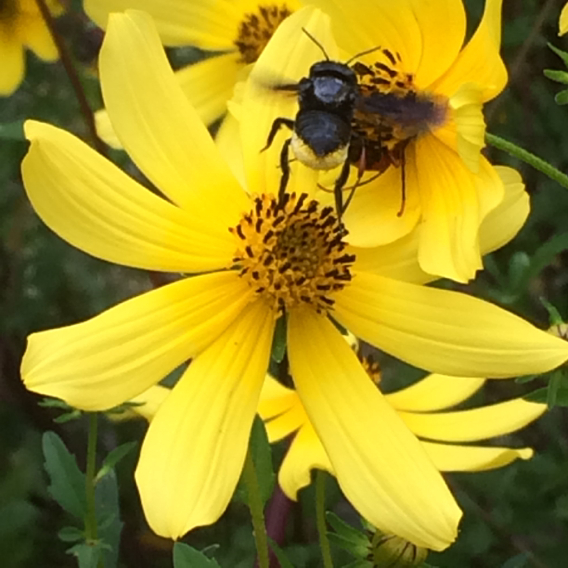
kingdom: Plantae
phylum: Tracheophyta
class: Magnoliopsida
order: Asterales
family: Asteraceae
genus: Bidens
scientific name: Bidens aristosa
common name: Western tickseed
